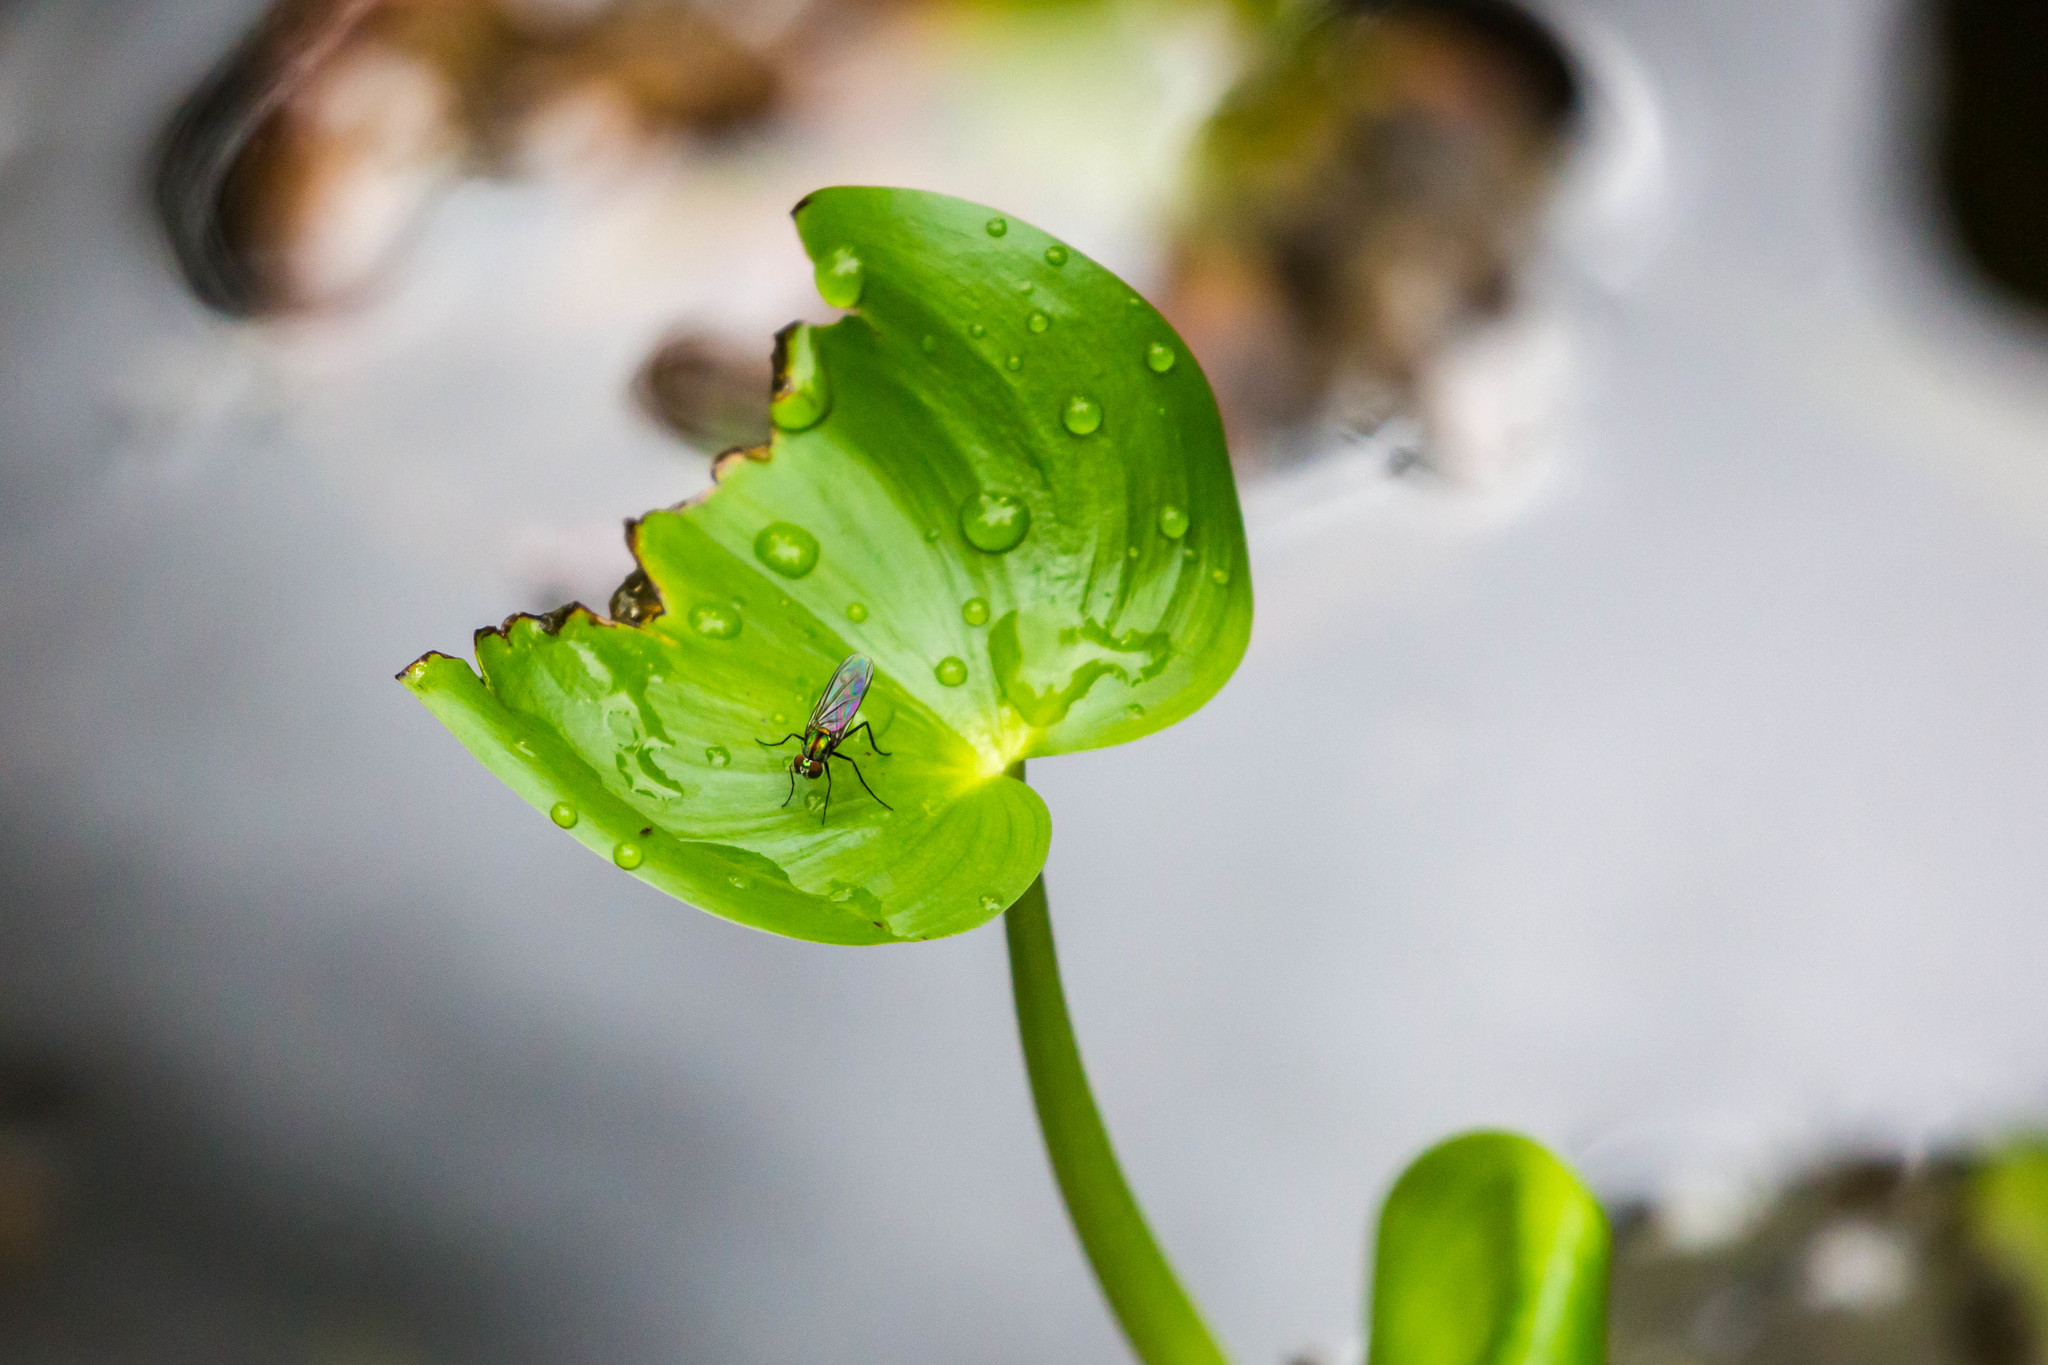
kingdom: Animalia
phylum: Arthropoda
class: Insecta
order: Diptera
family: Dolichopodidae
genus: Plagioneurus
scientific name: Plagioneurus univittatus
